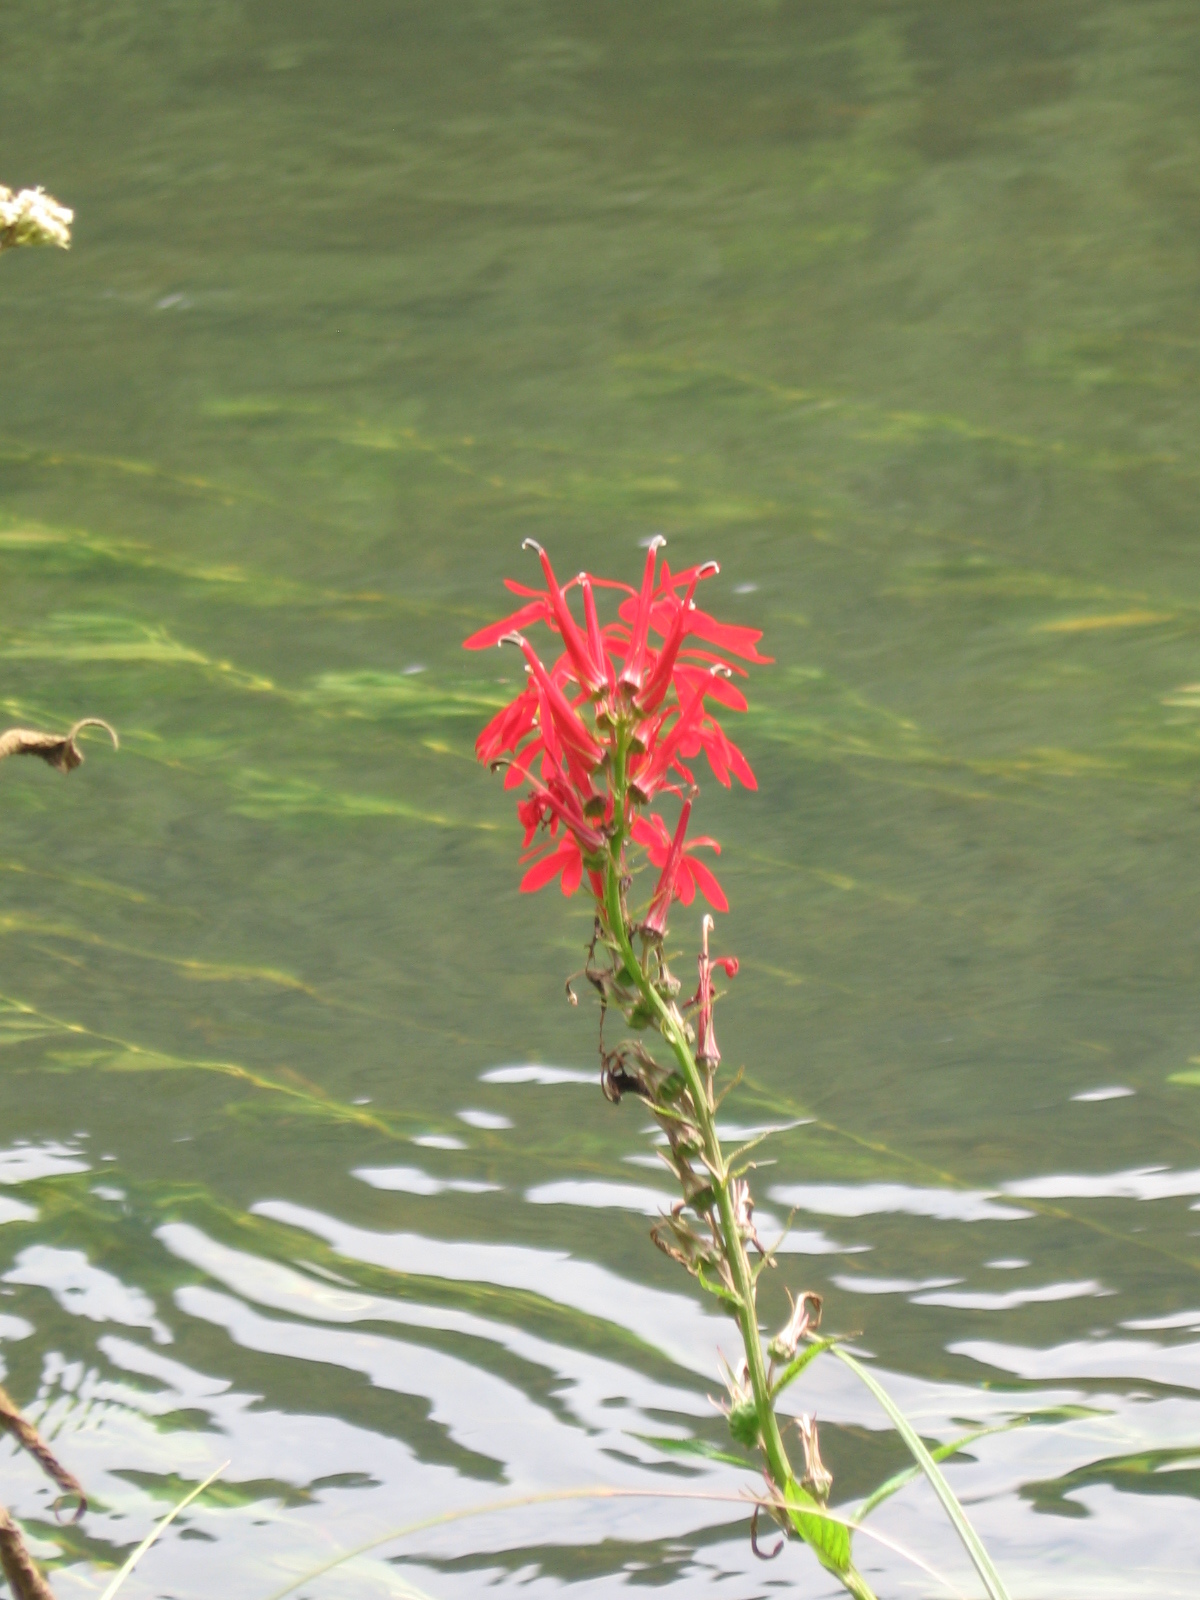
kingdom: Plantae
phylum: Tracheophyta
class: Magnoliopsida
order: Asterales
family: Campanulaceae
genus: Lobelia
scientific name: Lobelia cardinalis
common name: Cardinal flower
